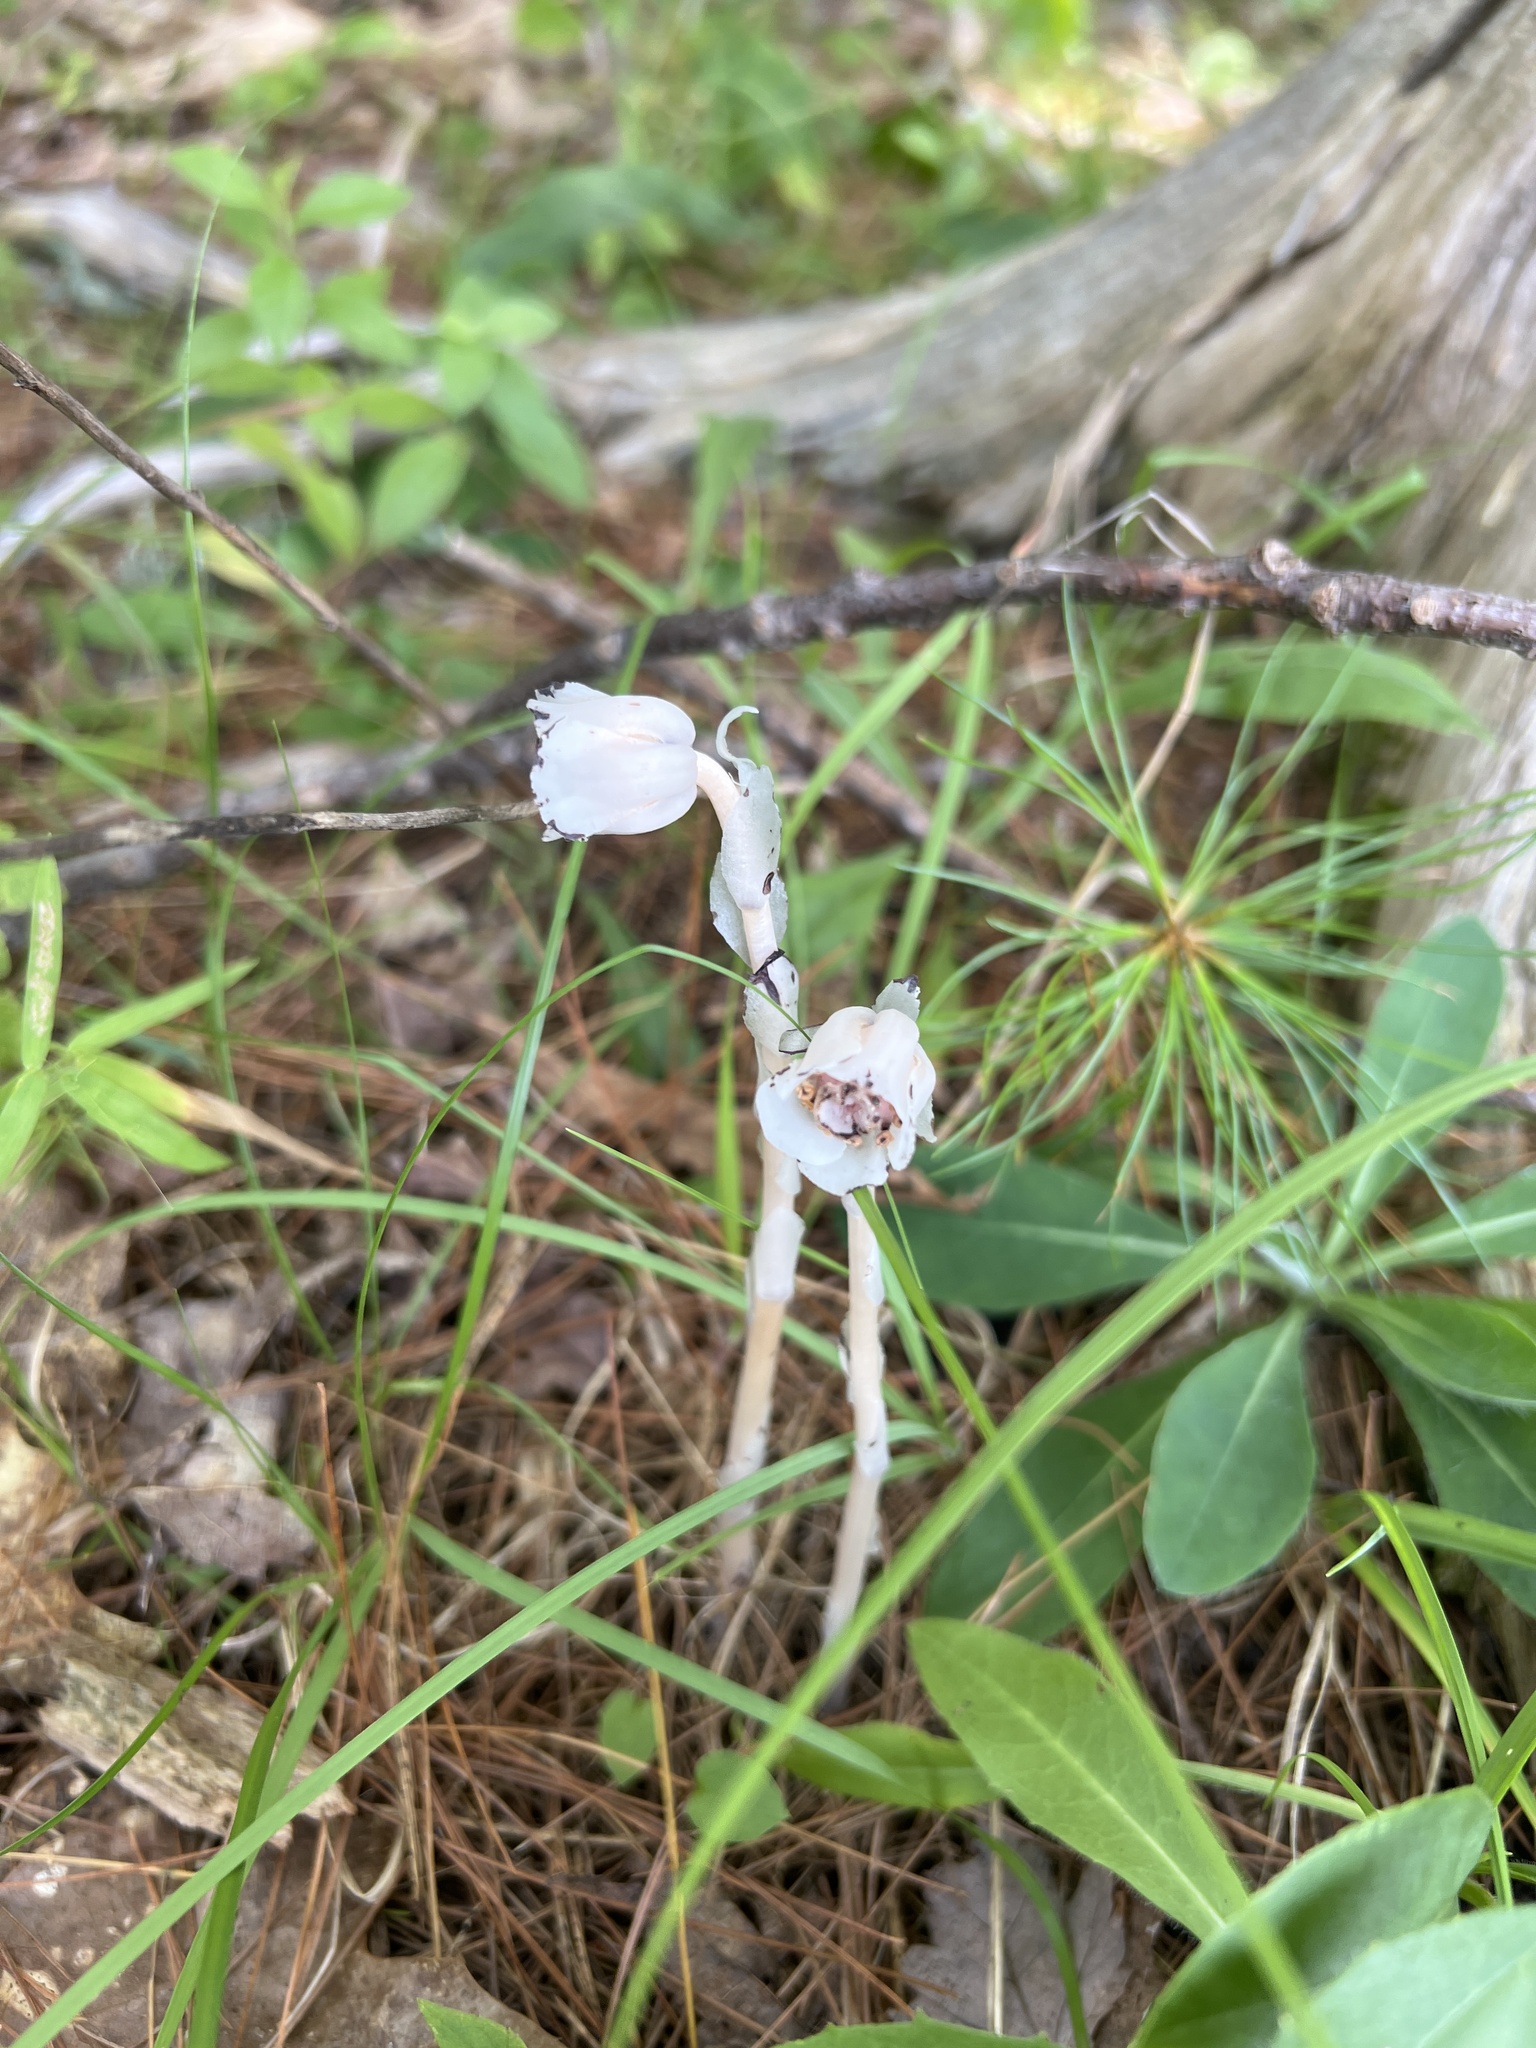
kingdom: Plantae
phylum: Tracheophyta
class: Magnoliopsida
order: Ericales
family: Ericaceae
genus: Monotropa
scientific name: Monotropa uniflora
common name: Convulsion root
